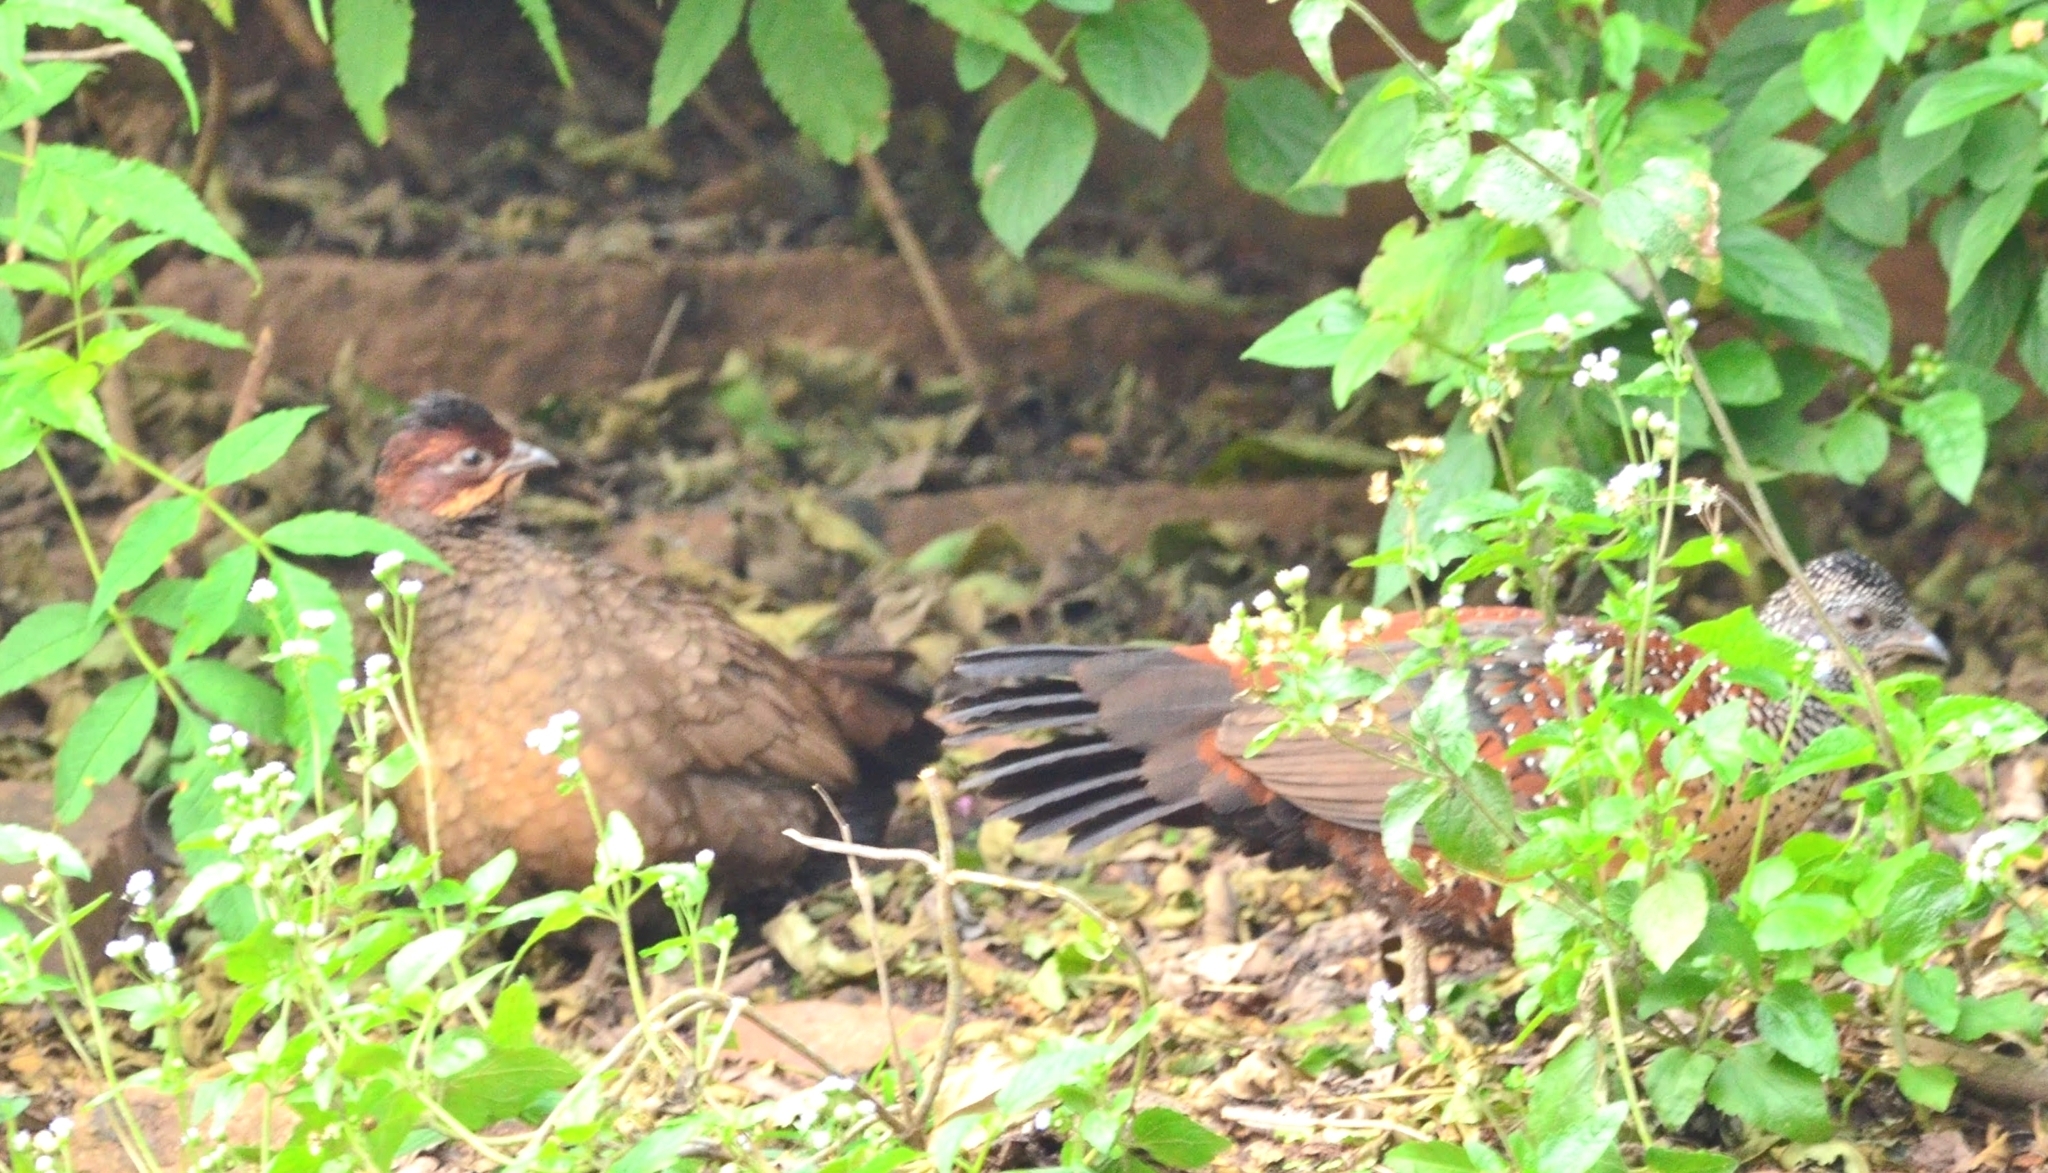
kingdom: Animalia
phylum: Chordata
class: Aves
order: Galliformes
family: Phasianidae
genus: Galloperdix
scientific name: Galloperdix lunulata
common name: Painted spurfowl
